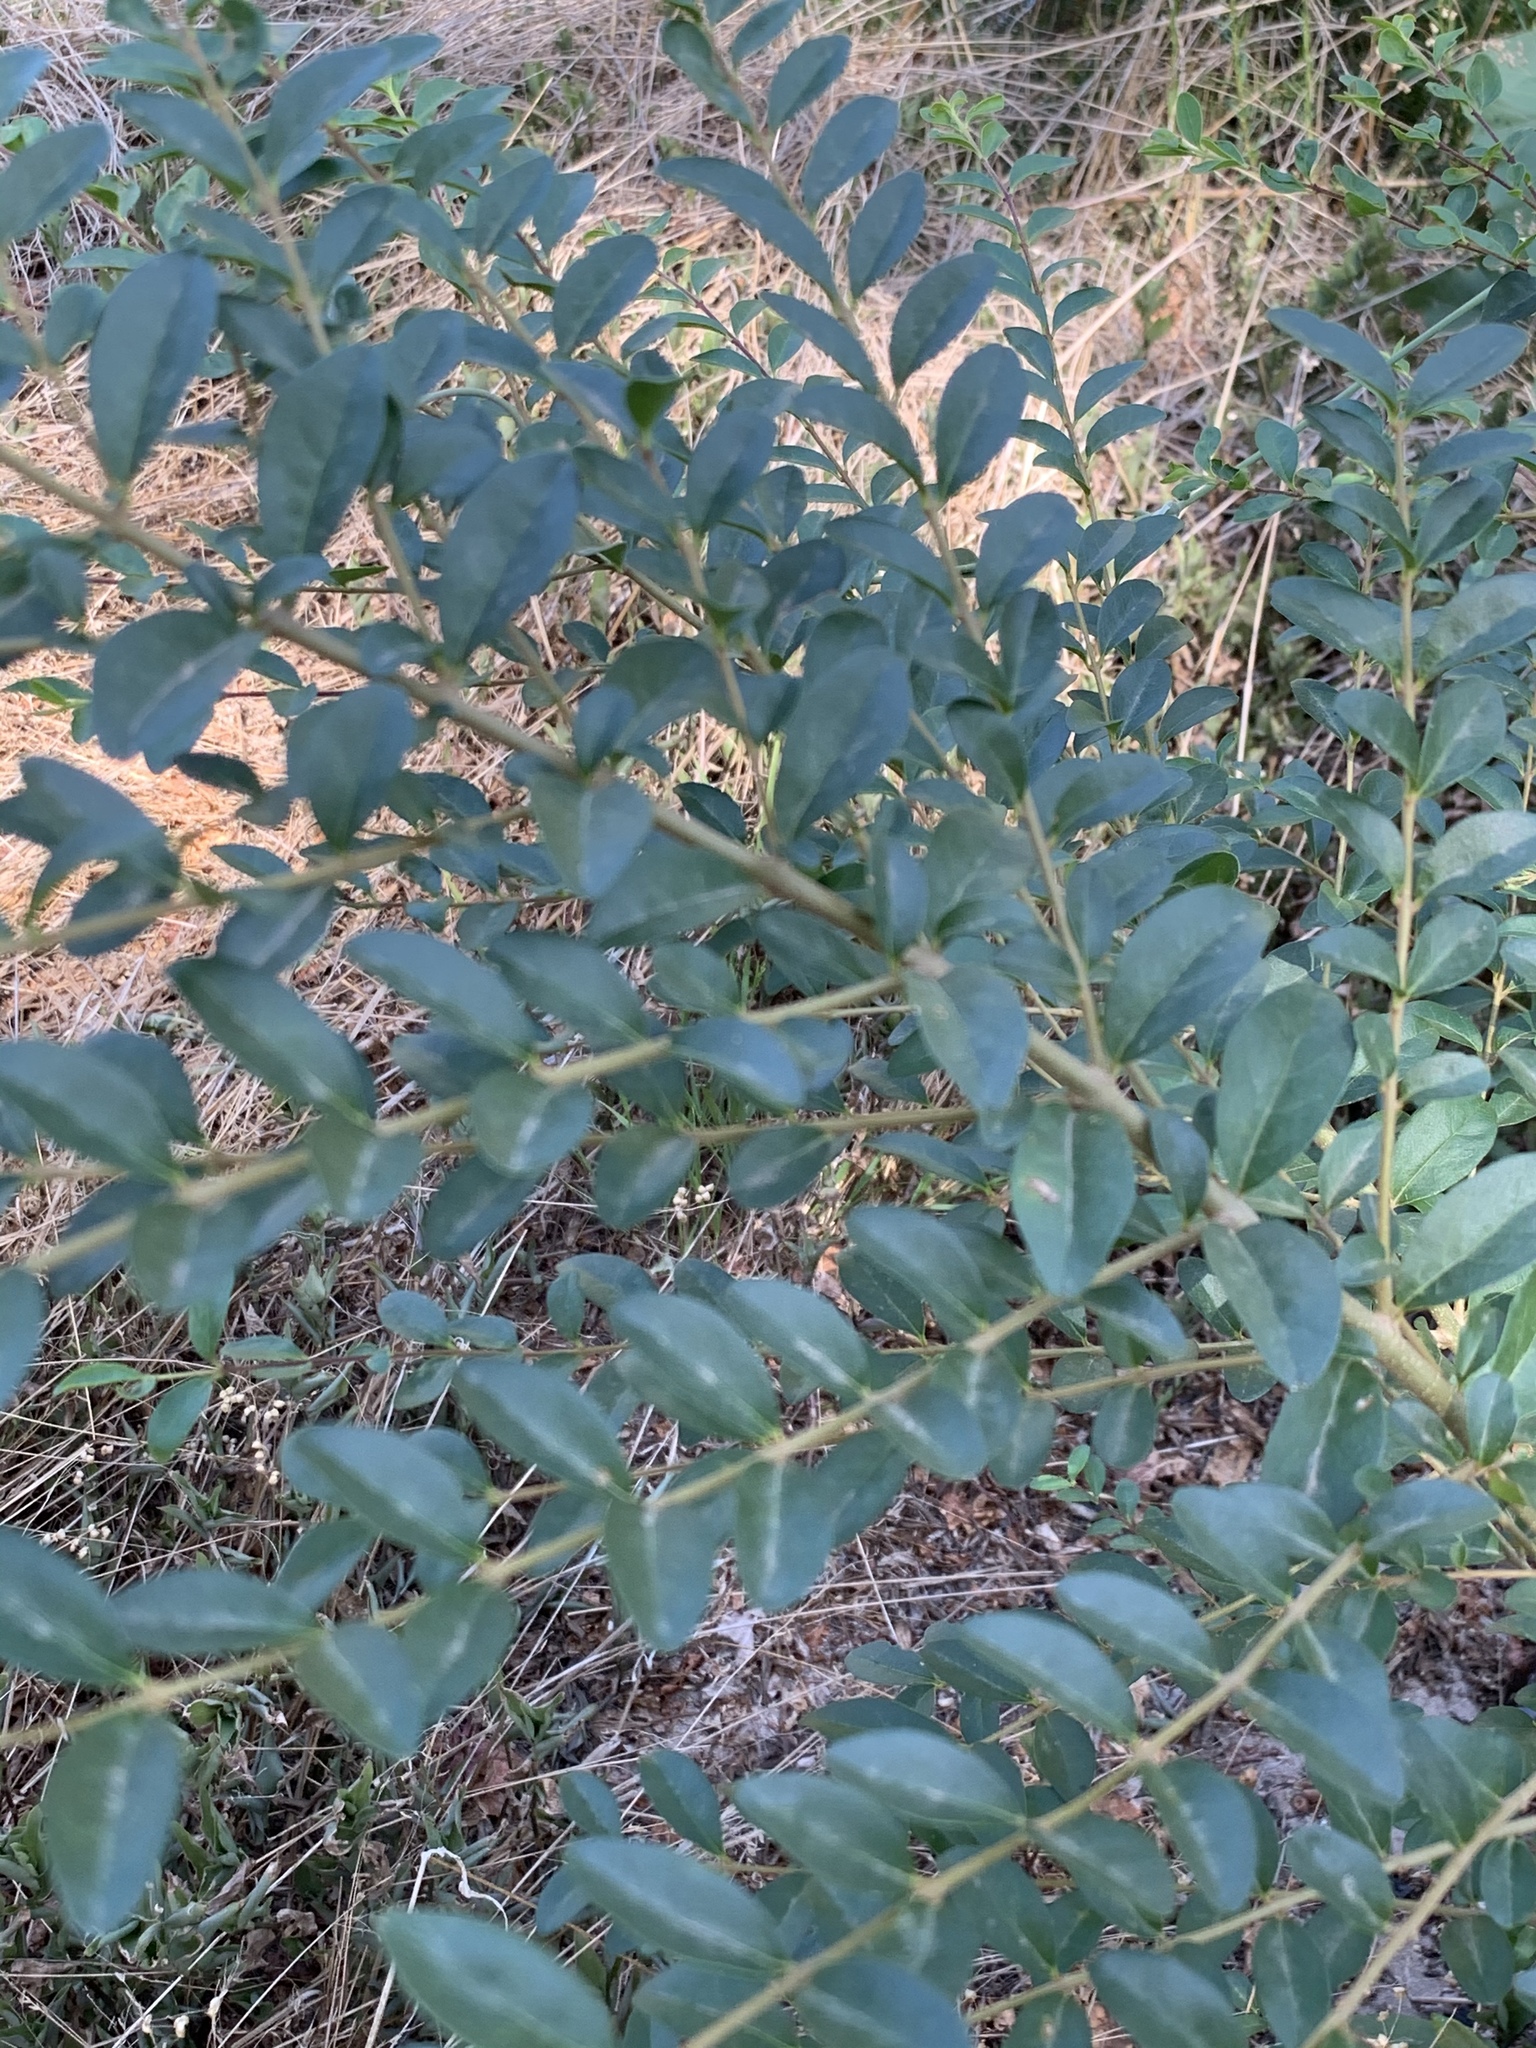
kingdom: Plantae
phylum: Tracheophyta
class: Magnoliopsida
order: Lamiales
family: Oleaceae
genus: Ligustrum
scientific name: Ligustrum sinense
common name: Chinese privet
